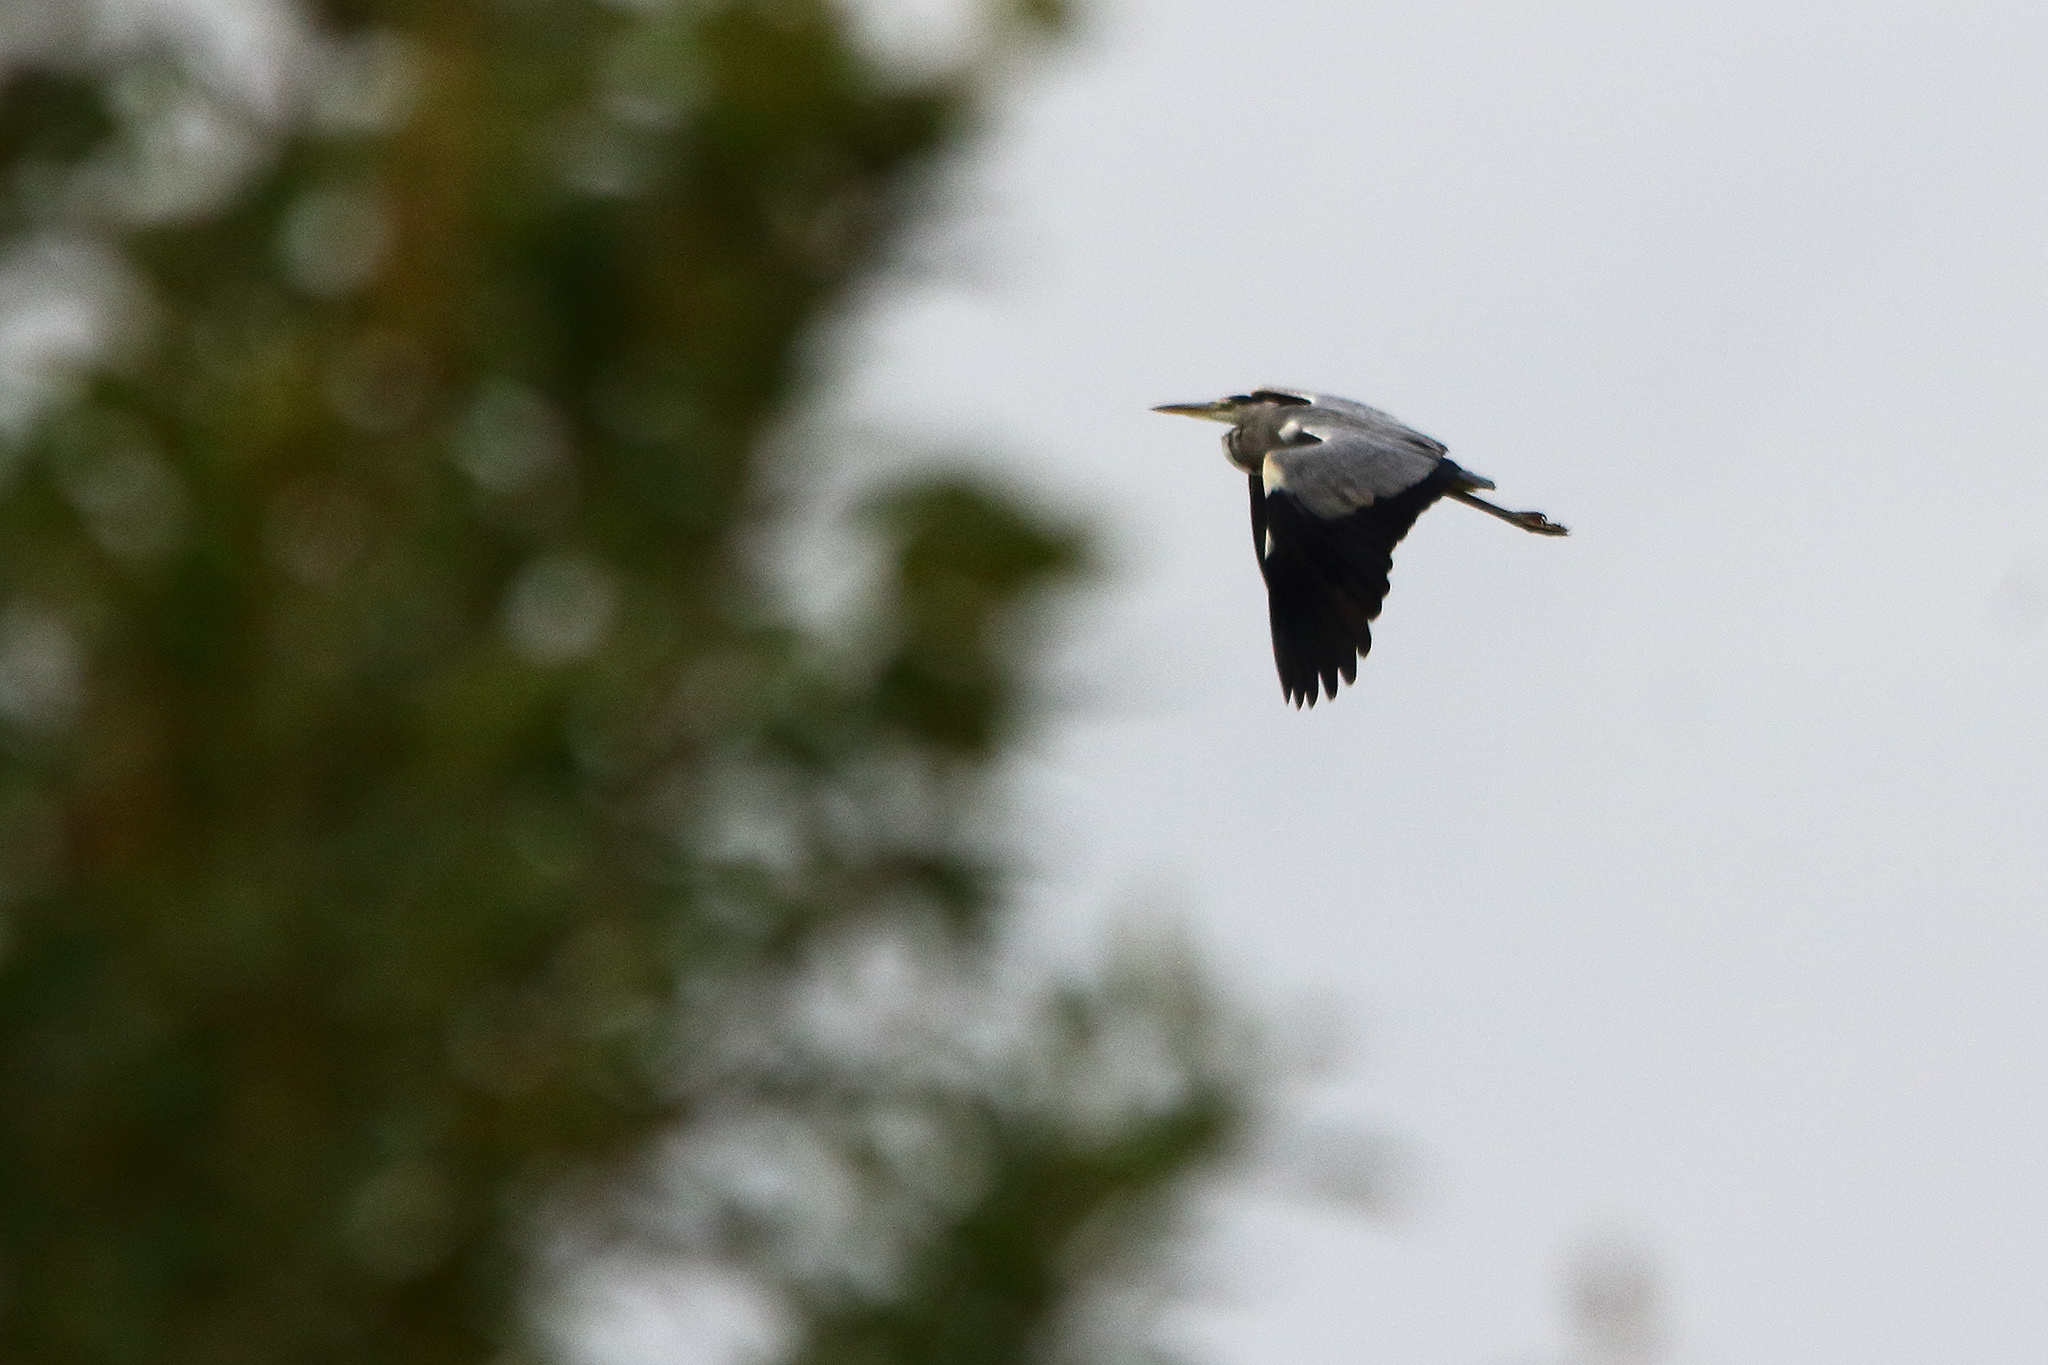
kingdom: Animalia
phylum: Chordata
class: Aves
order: Pelecaniformes
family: Ardeidae
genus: Ardea
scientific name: Ardea cinerea
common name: Grey heron
